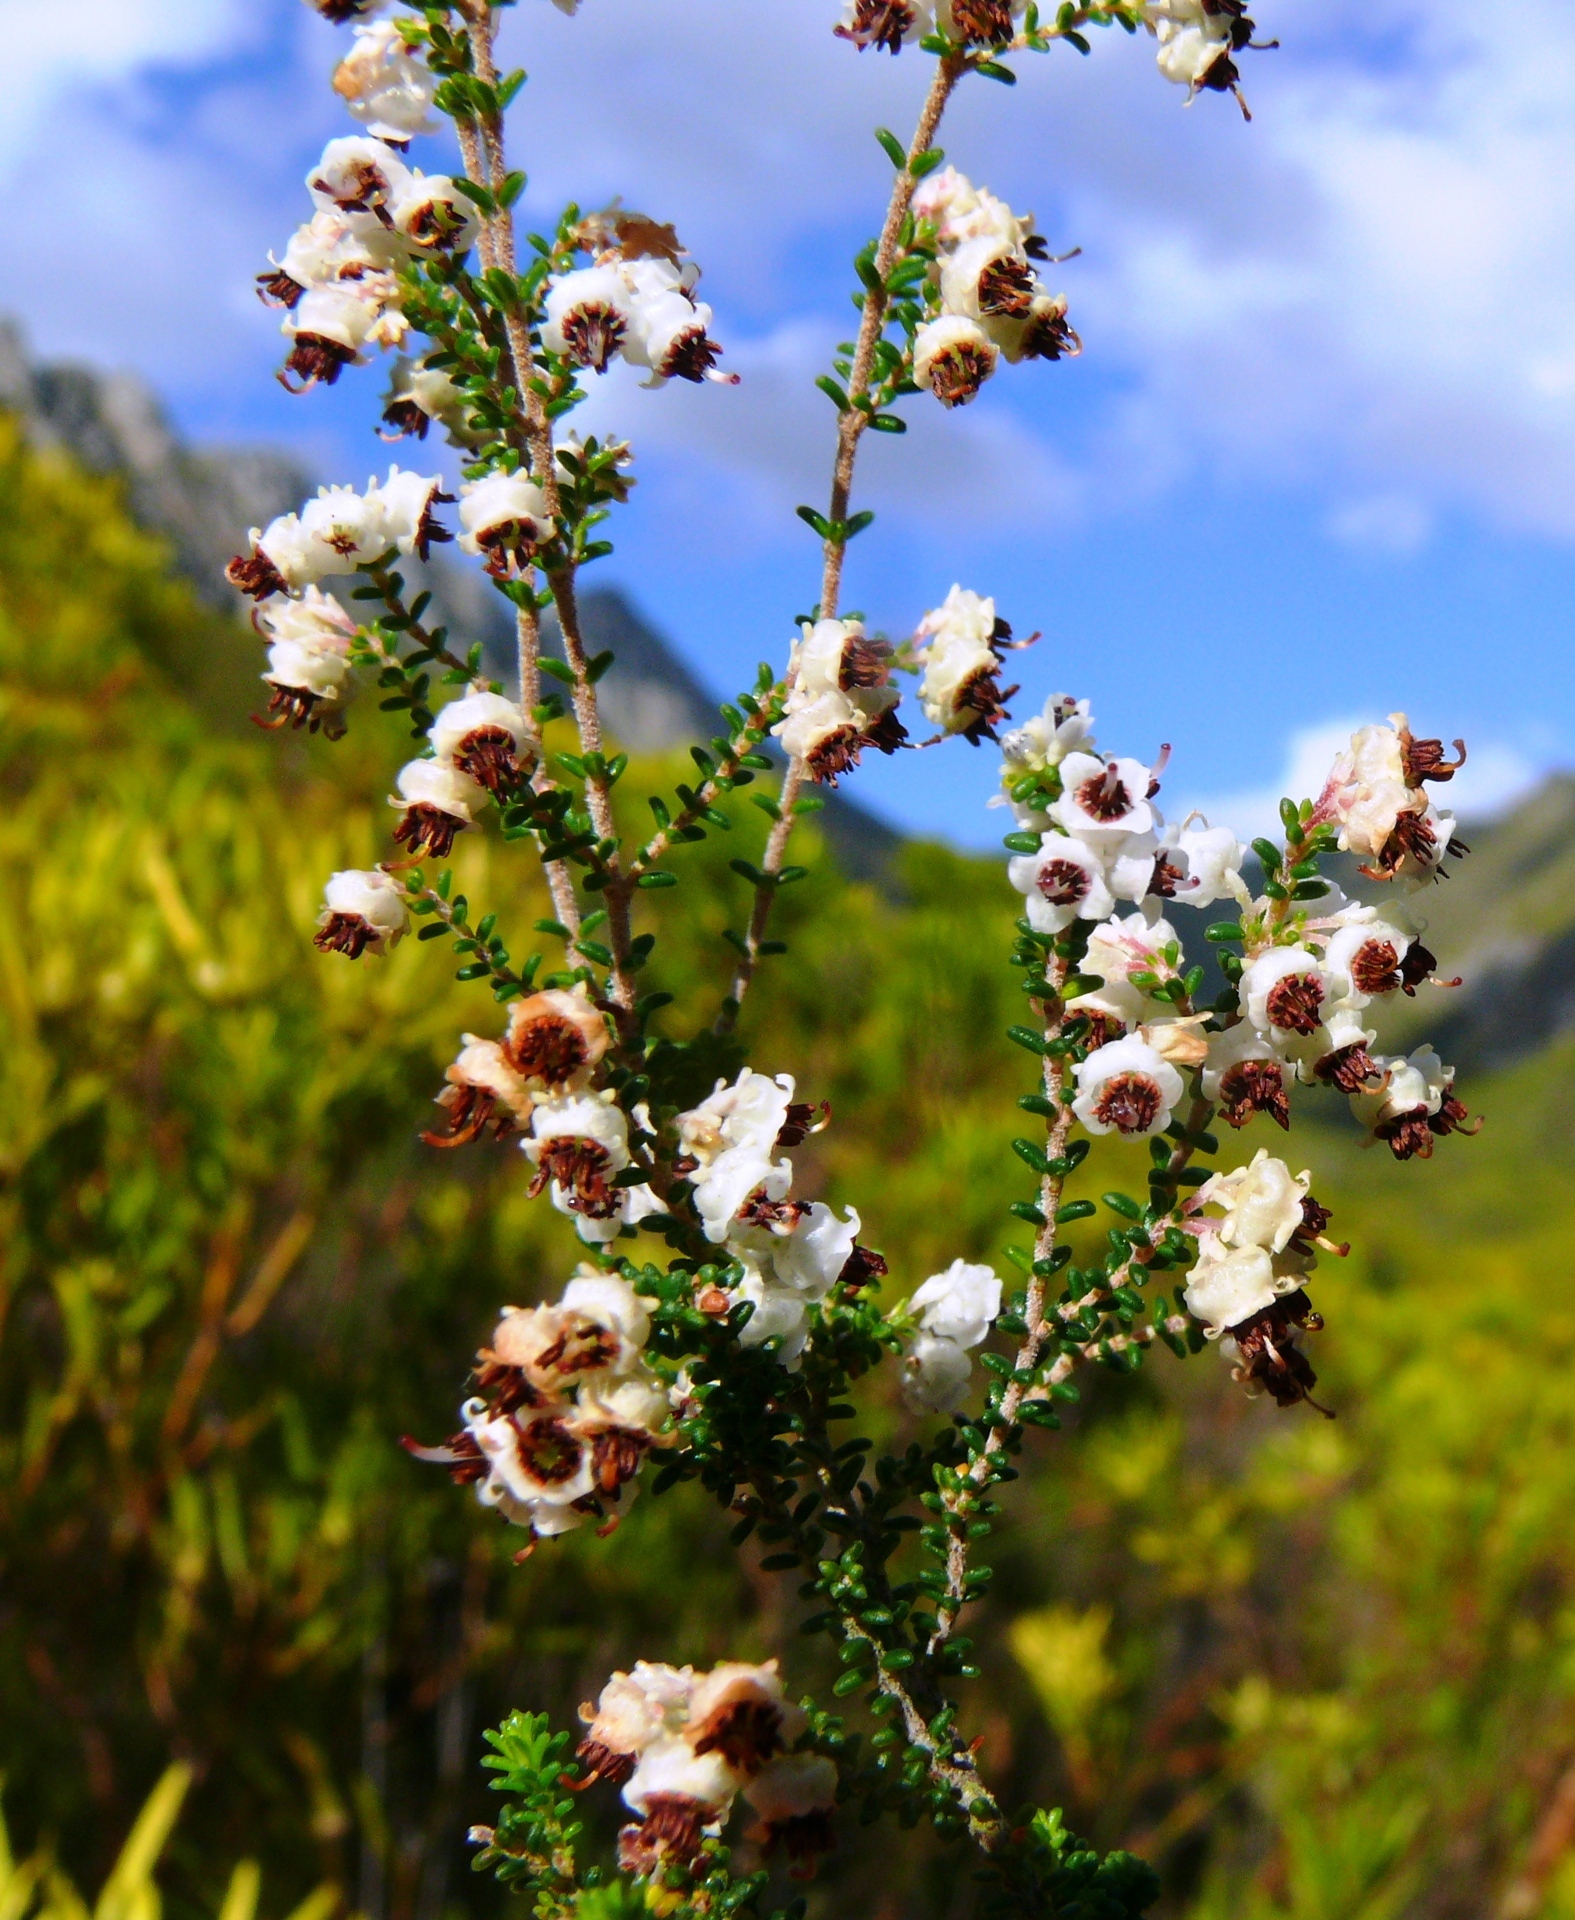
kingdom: Plantae
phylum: Tracheophyta
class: Magnoliopsida
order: Ericales
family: Ericaceae
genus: Erica
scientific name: Erica triceps
